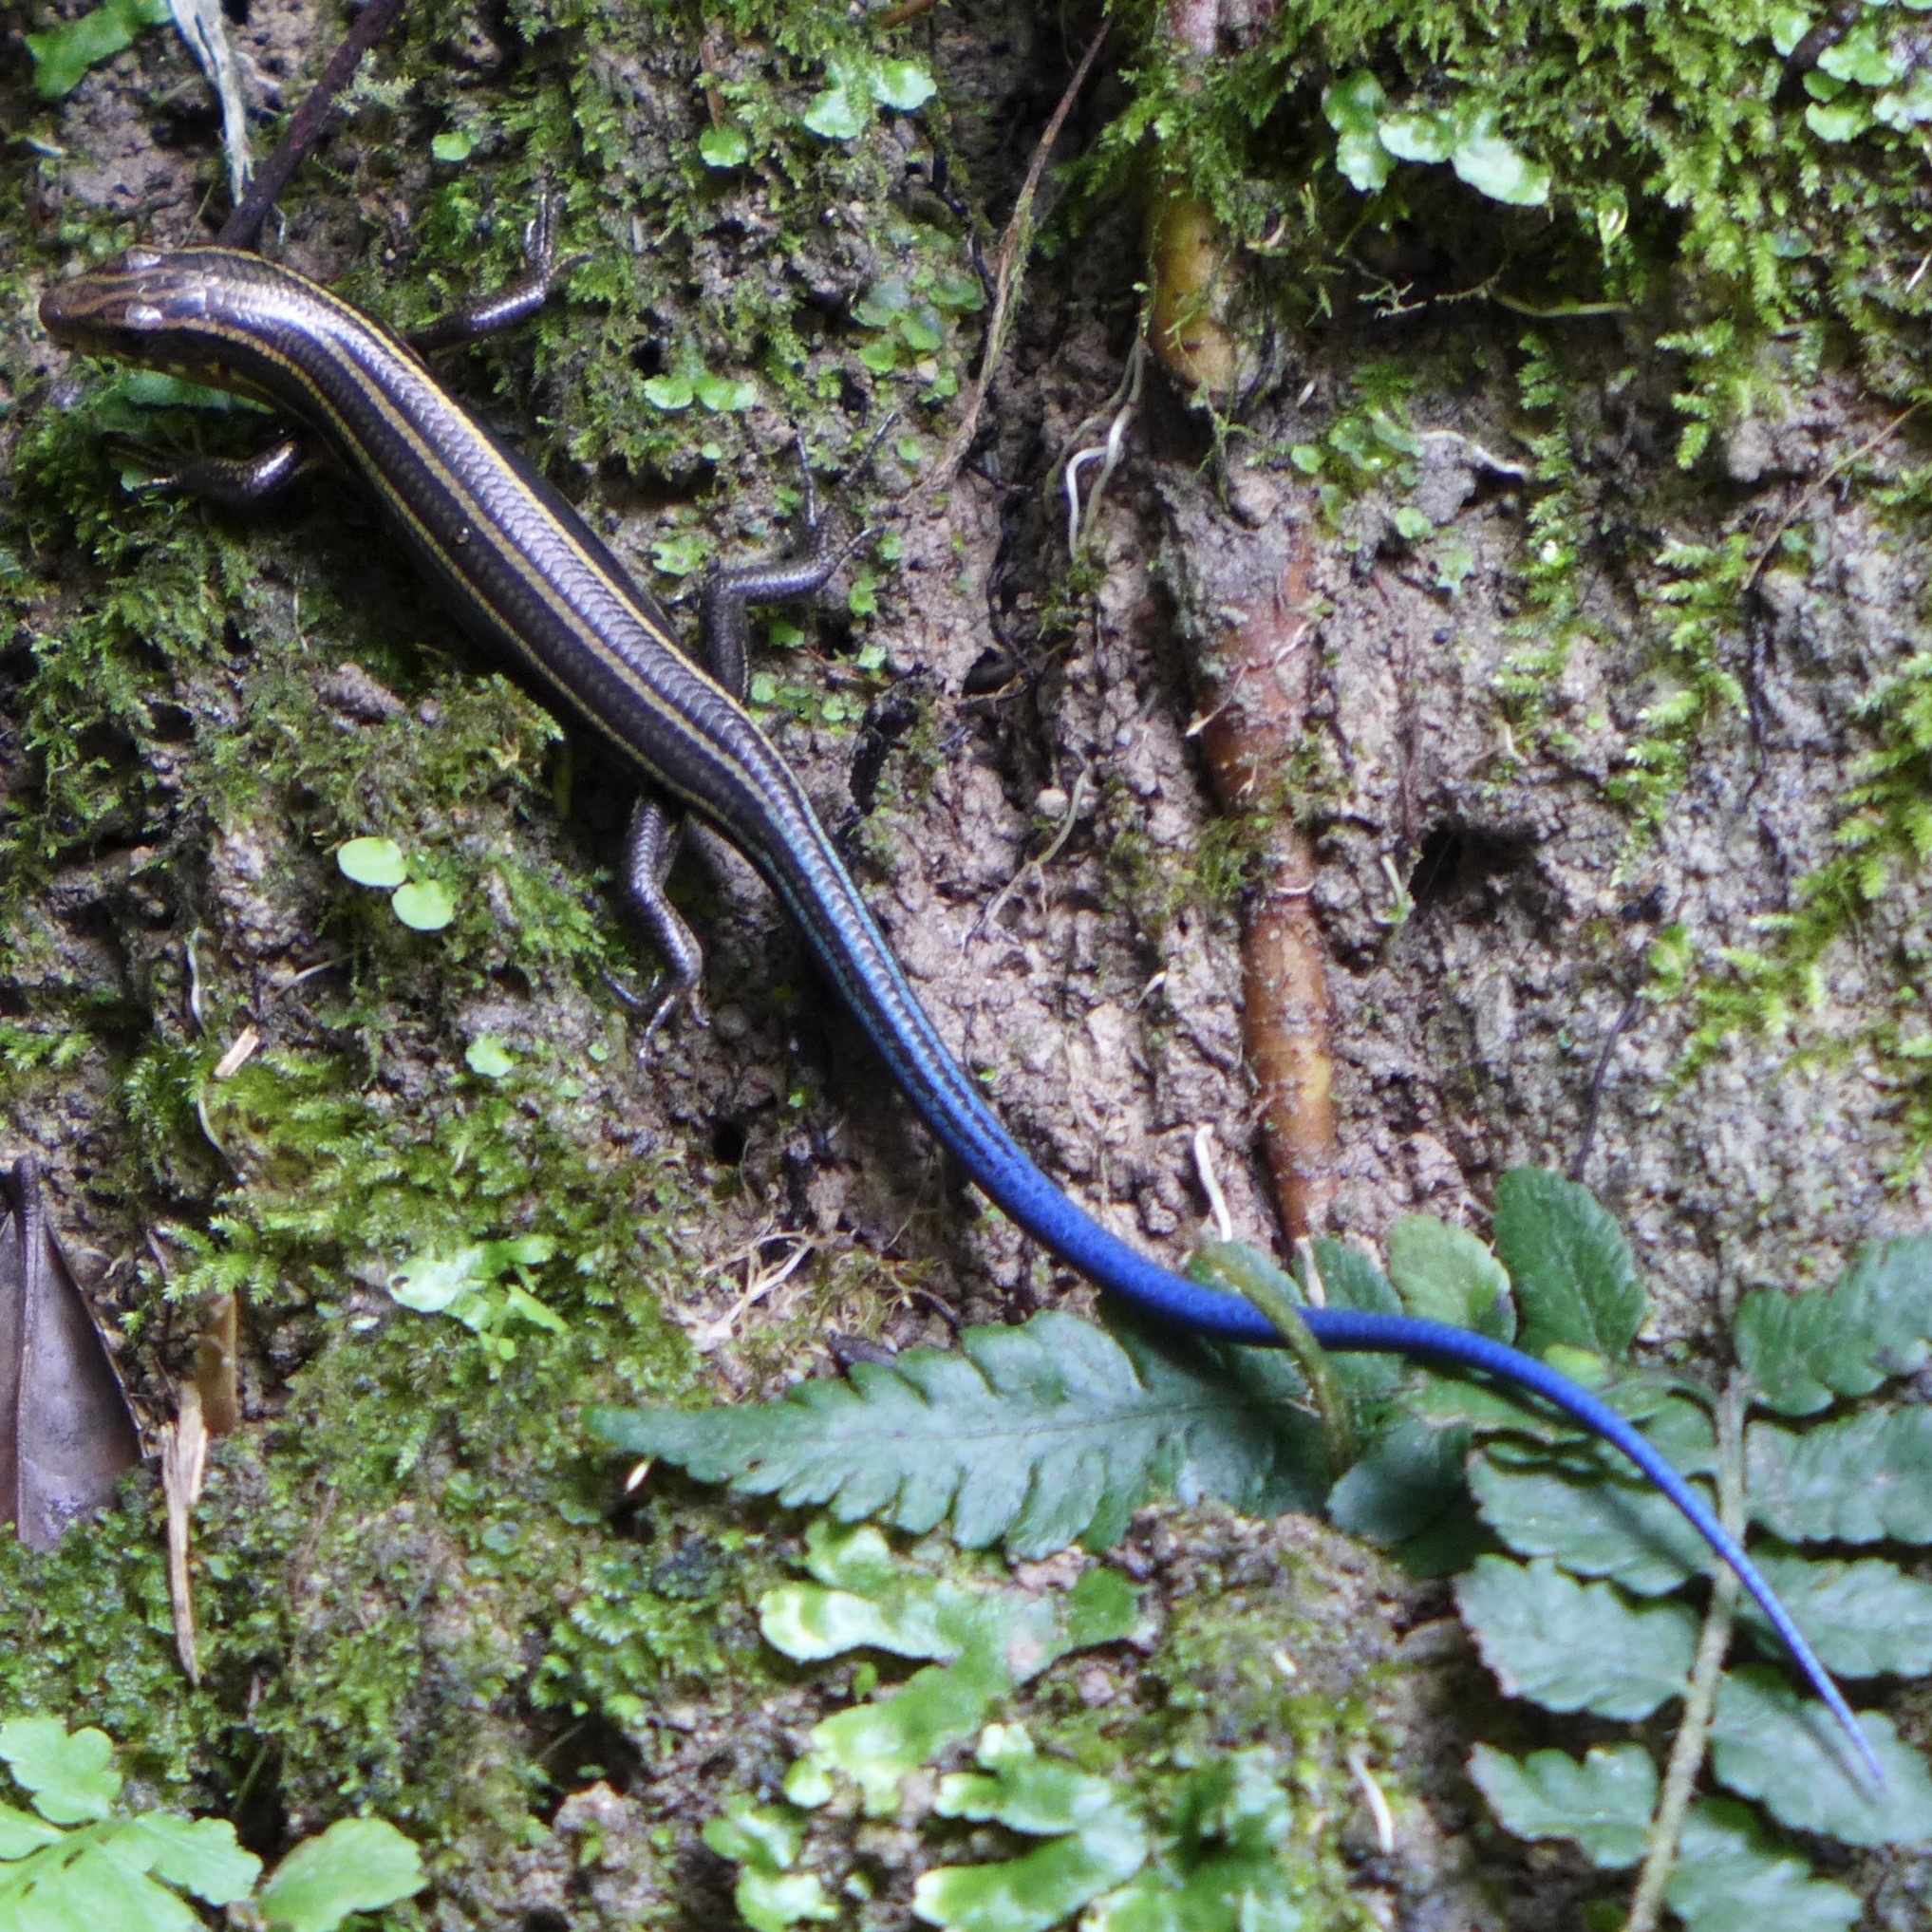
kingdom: Animalia
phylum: Chordata
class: Squamata
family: Scincidae
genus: Plestiodon
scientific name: Plestiodon japonicus
